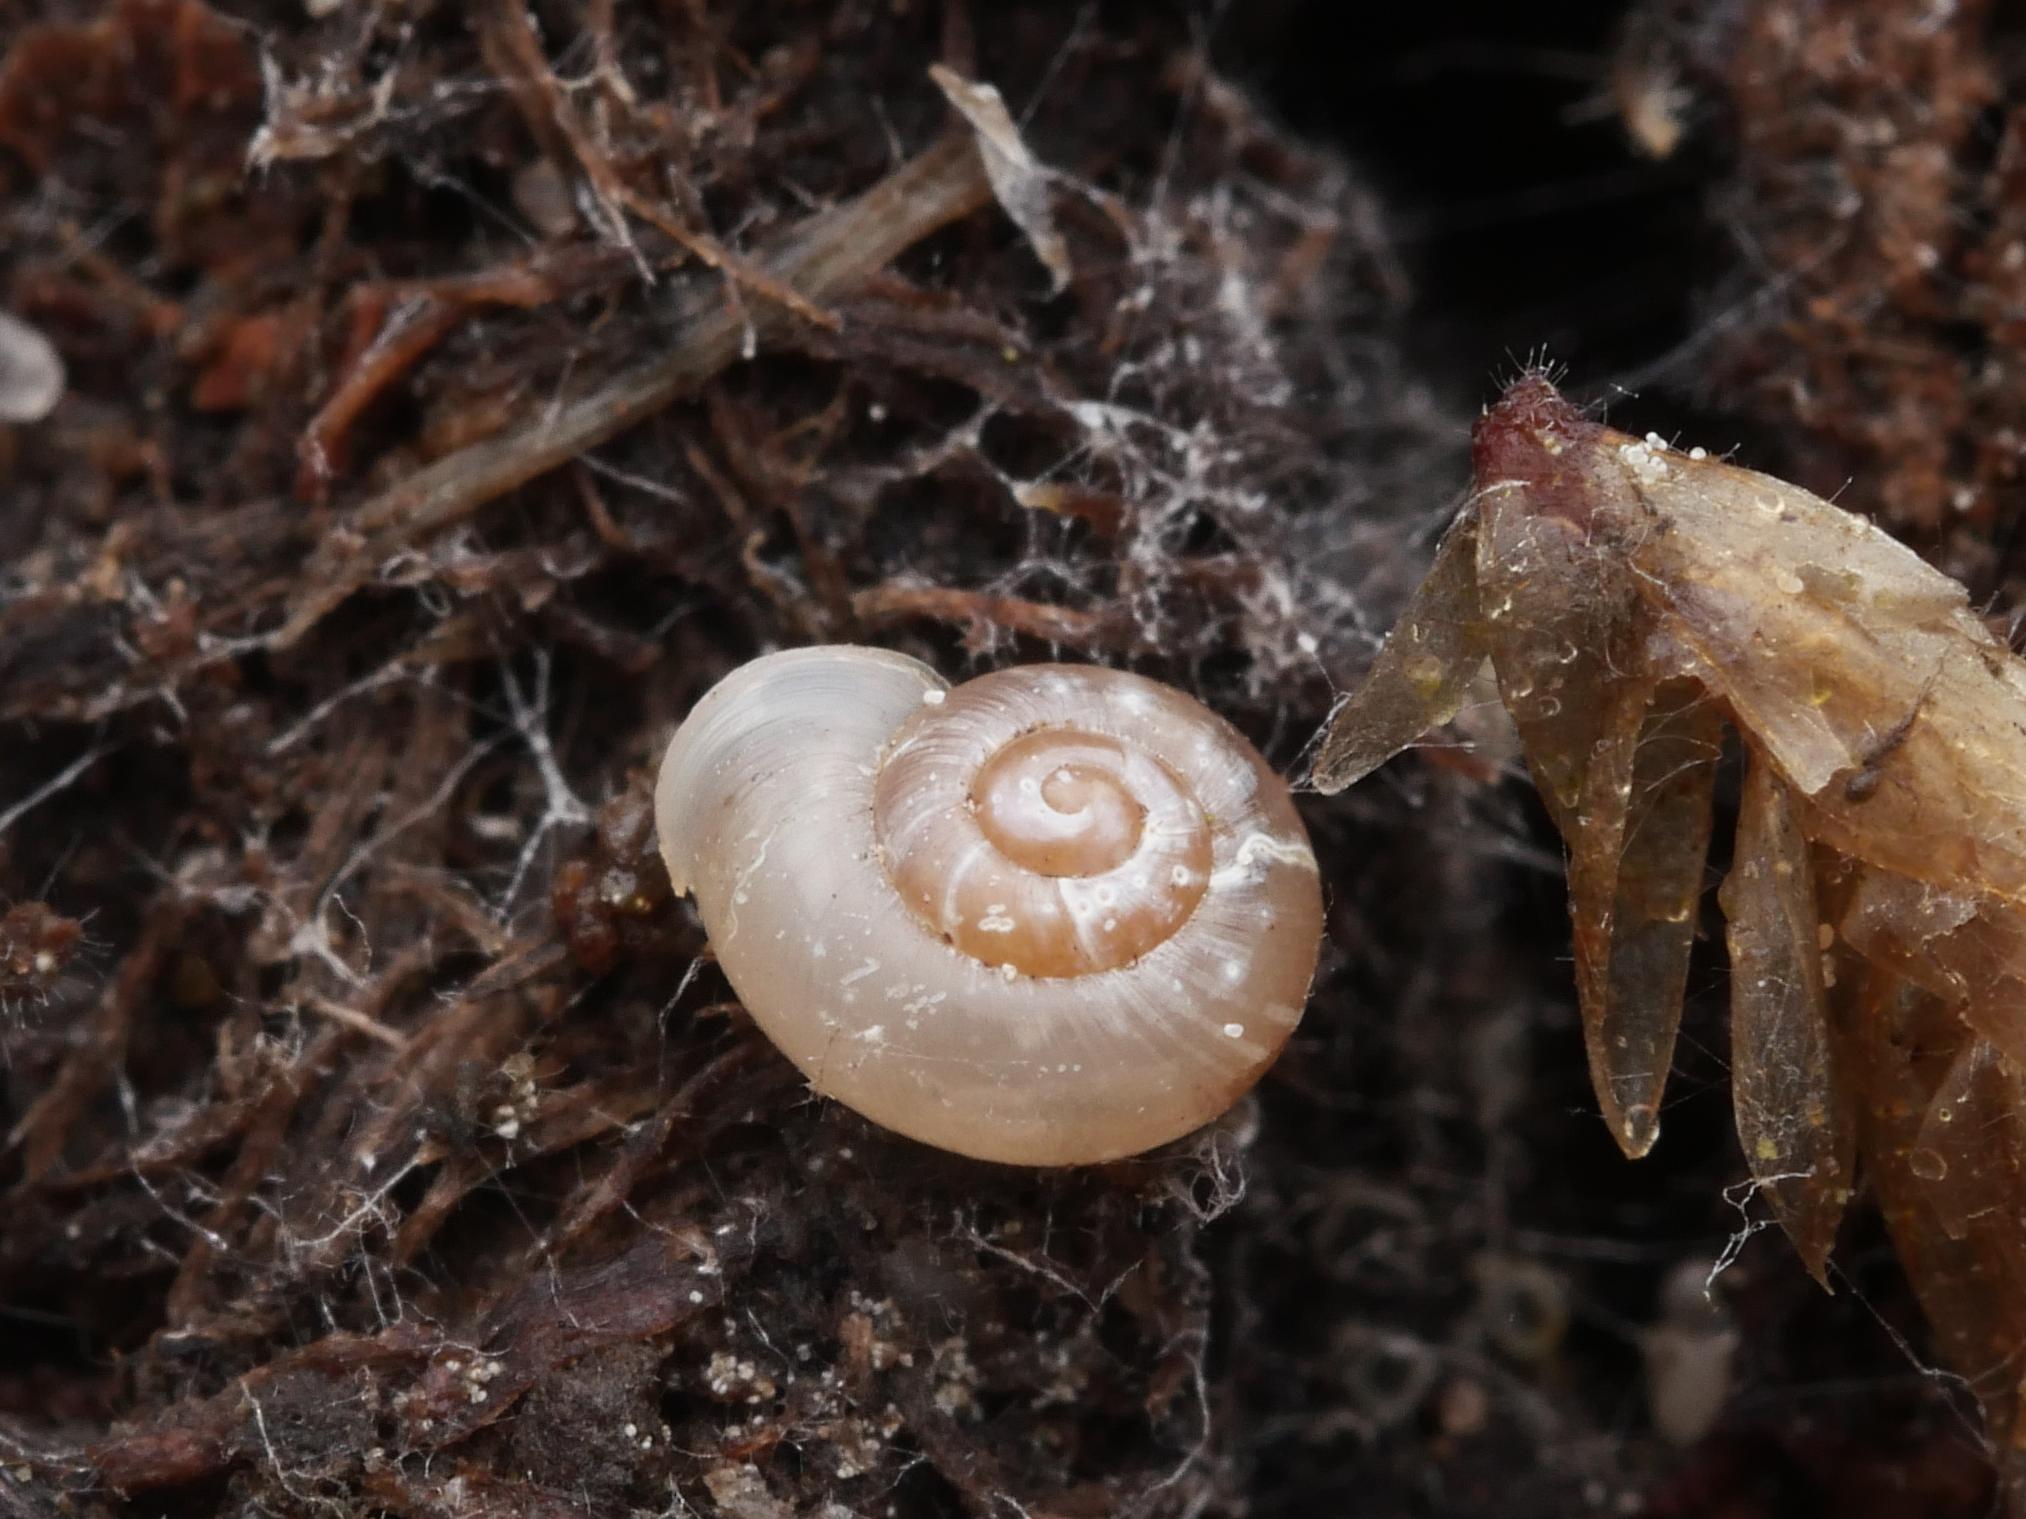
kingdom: Animalia
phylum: Mollusca
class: Gastropoda
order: Stylommatophora
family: Valloniidae
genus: Vallonia
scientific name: Vallonia pulchella
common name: Smooth grass snail
